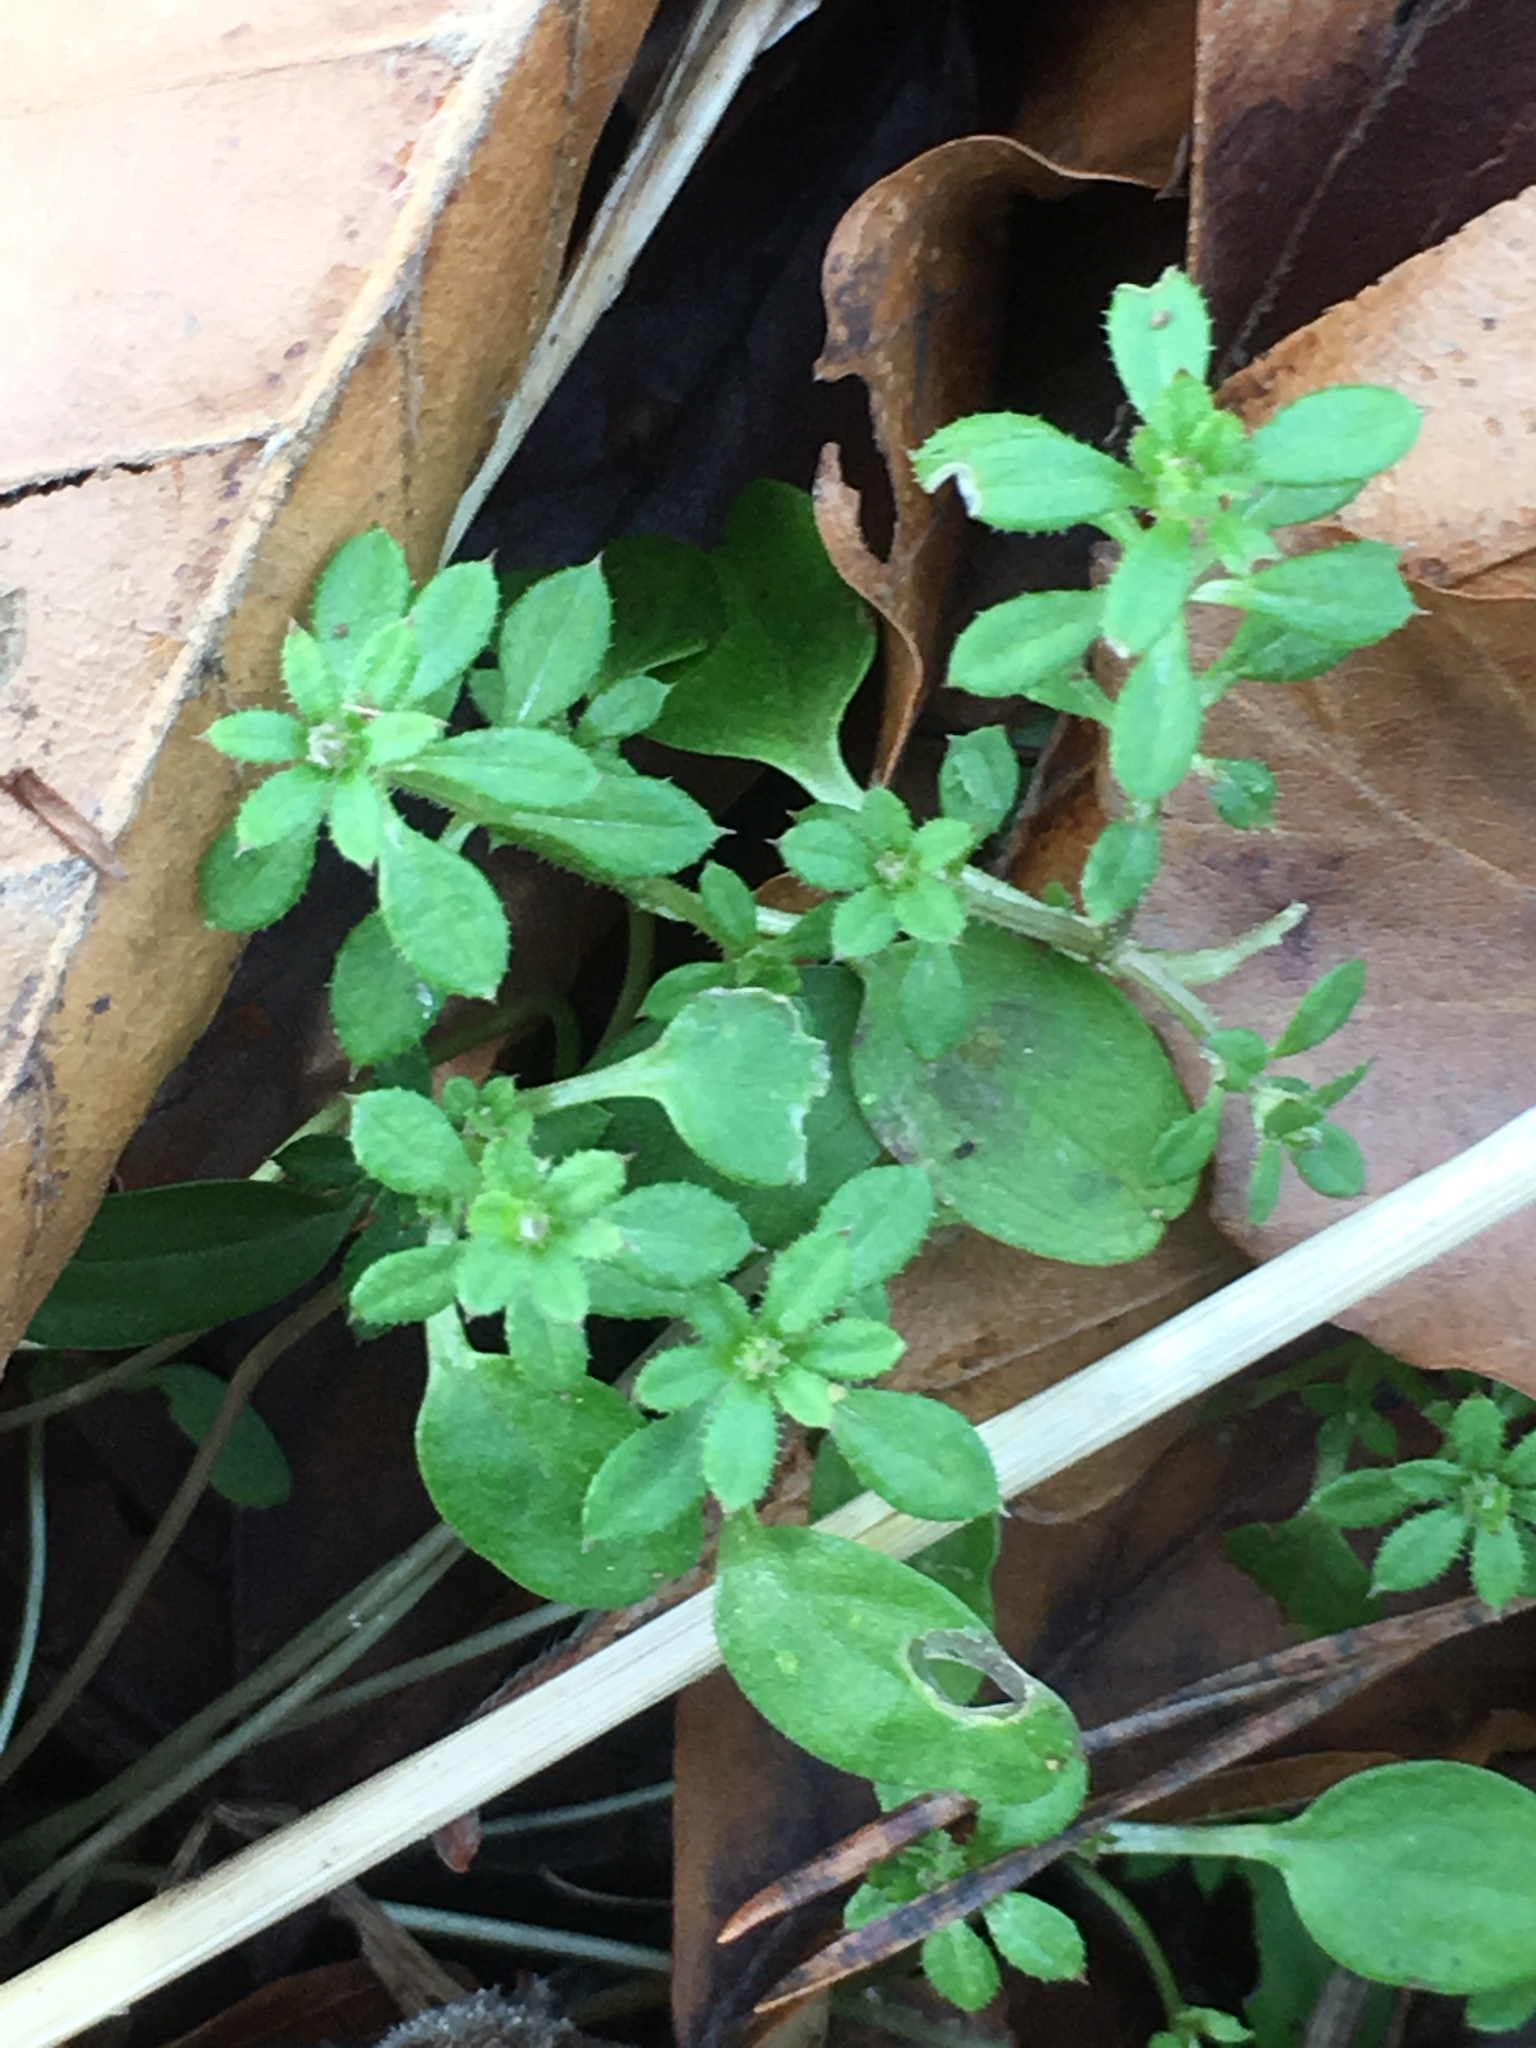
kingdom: Plantae
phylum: Tracheophyta
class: Magnoliopsida
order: Gentianales
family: Rubiaceae
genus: Galium
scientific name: Galium aparine
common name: Cleavers
